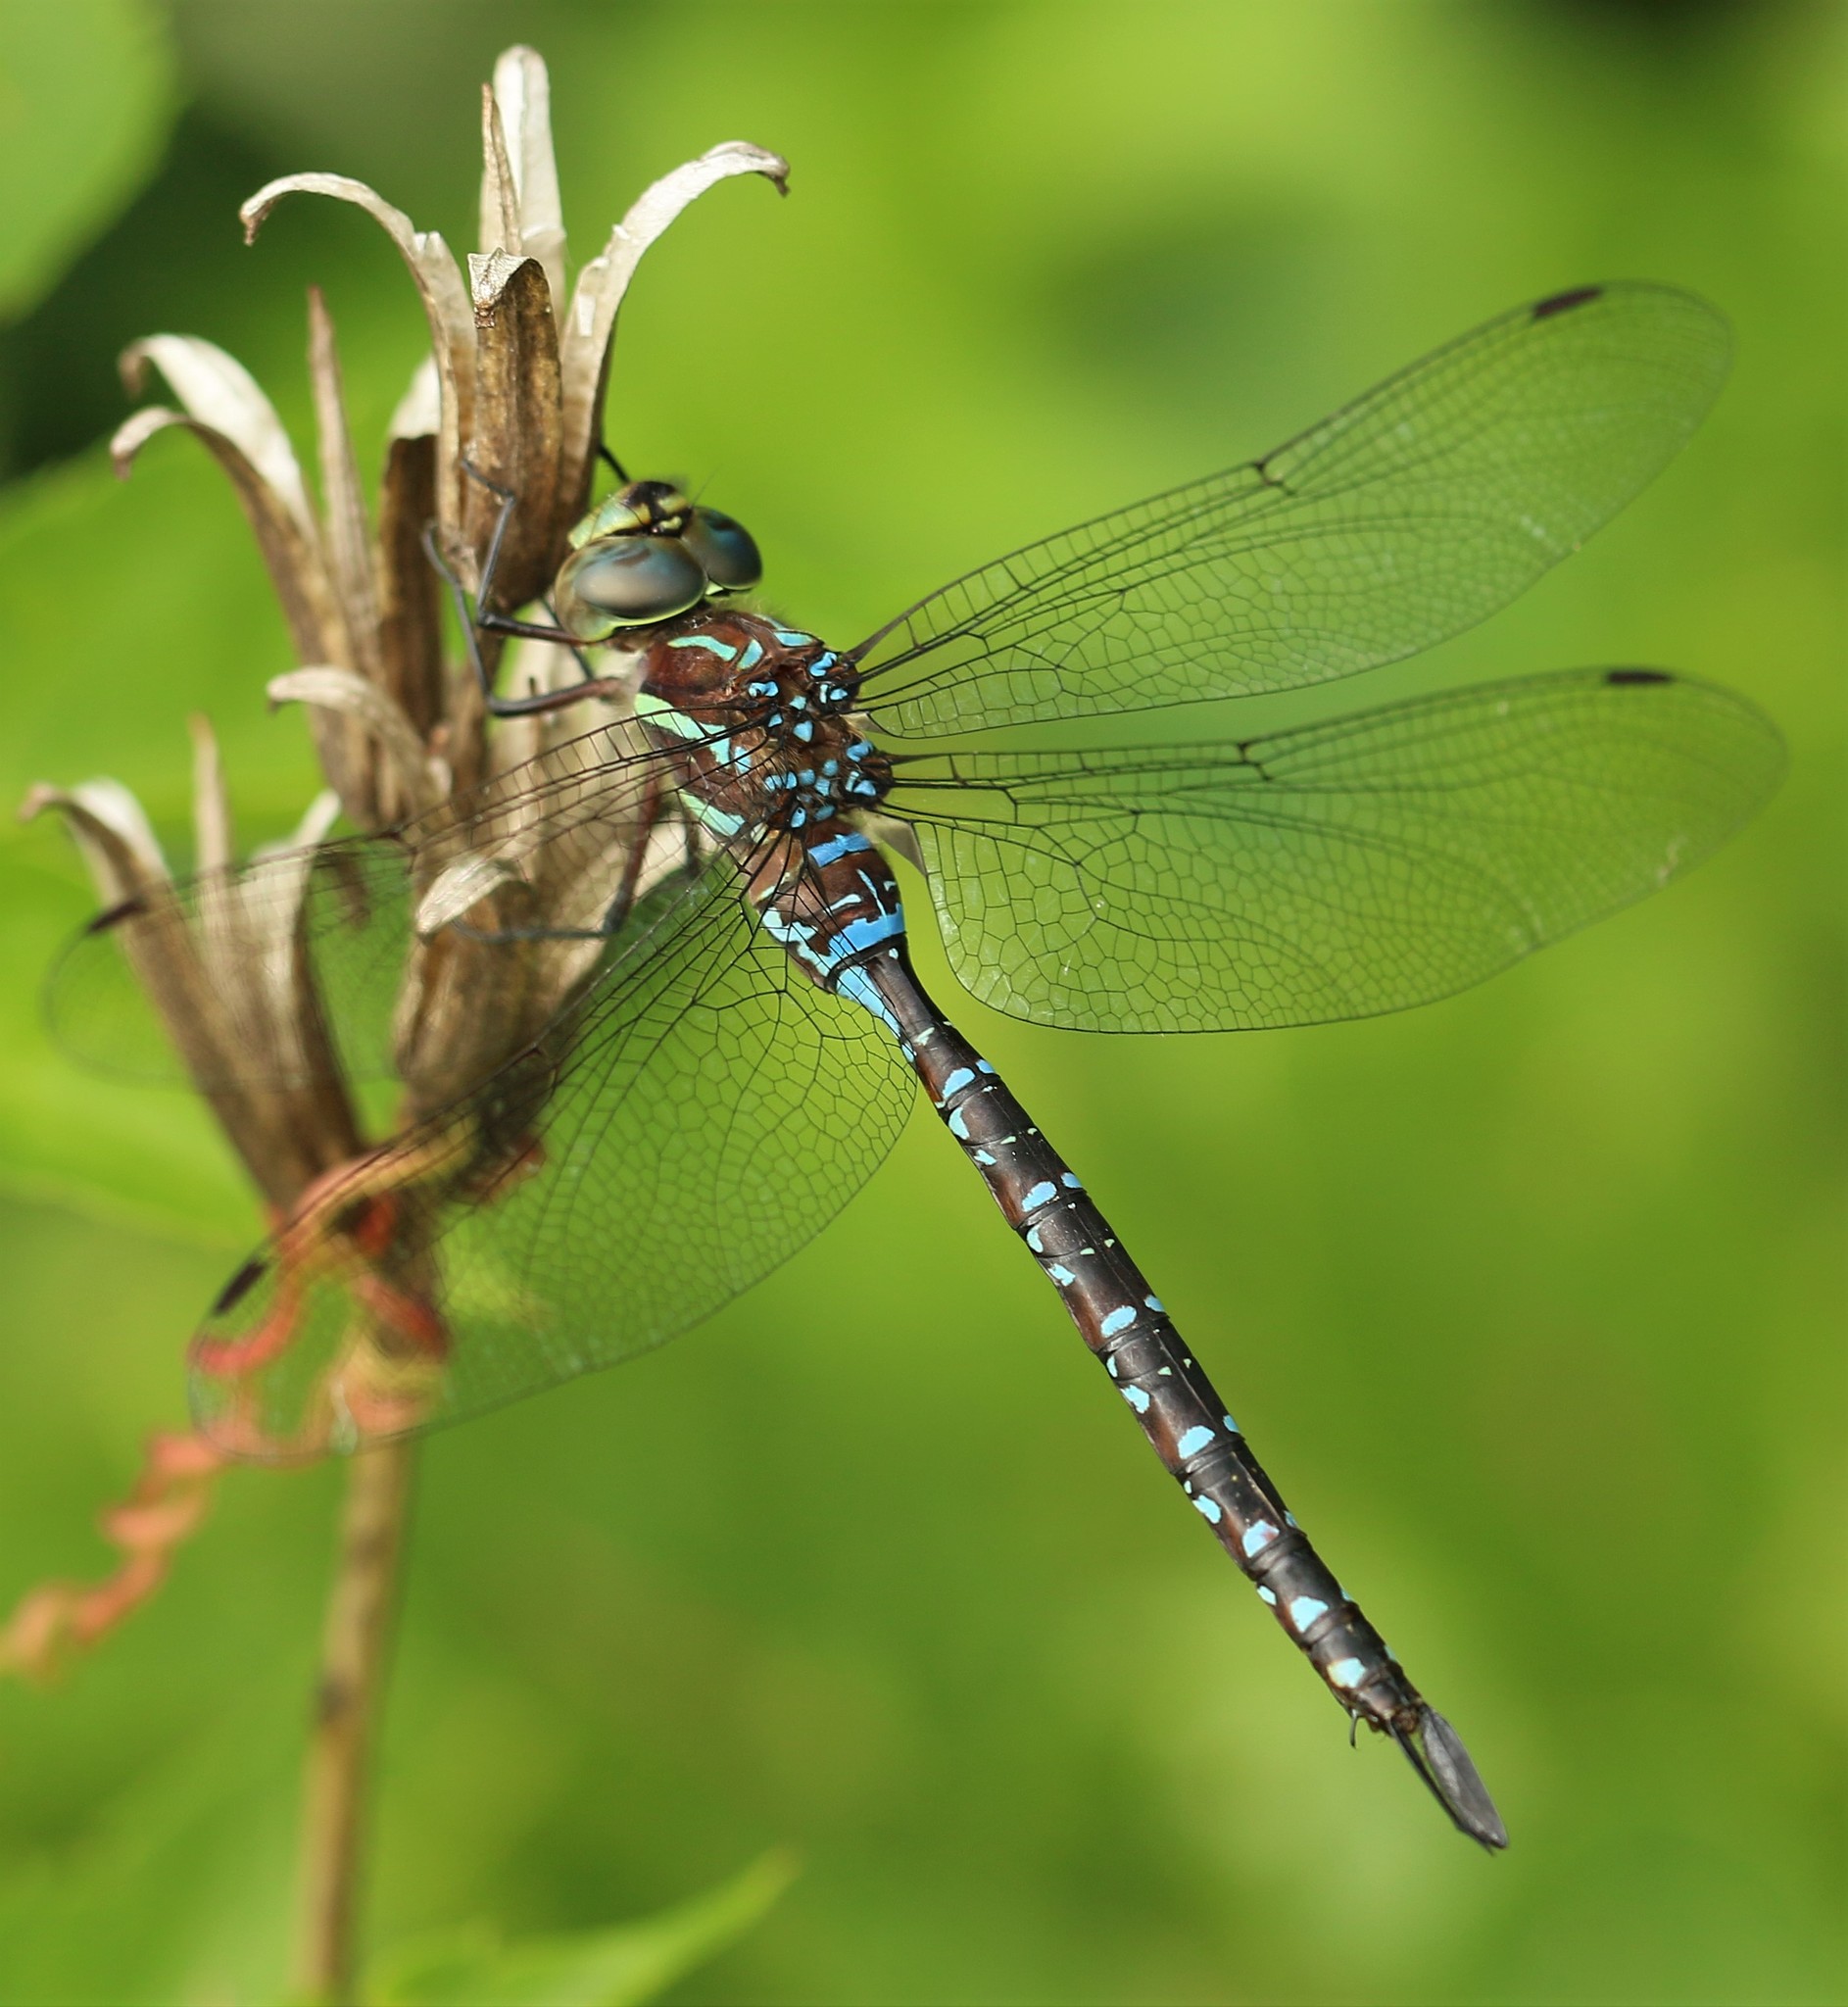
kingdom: Animalia
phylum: Arthropoda
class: Insecta
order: Odonata
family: Aeshnidae
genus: Aeshna
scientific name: Aeshna tuberculifera
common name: Aeschne à tubercules
